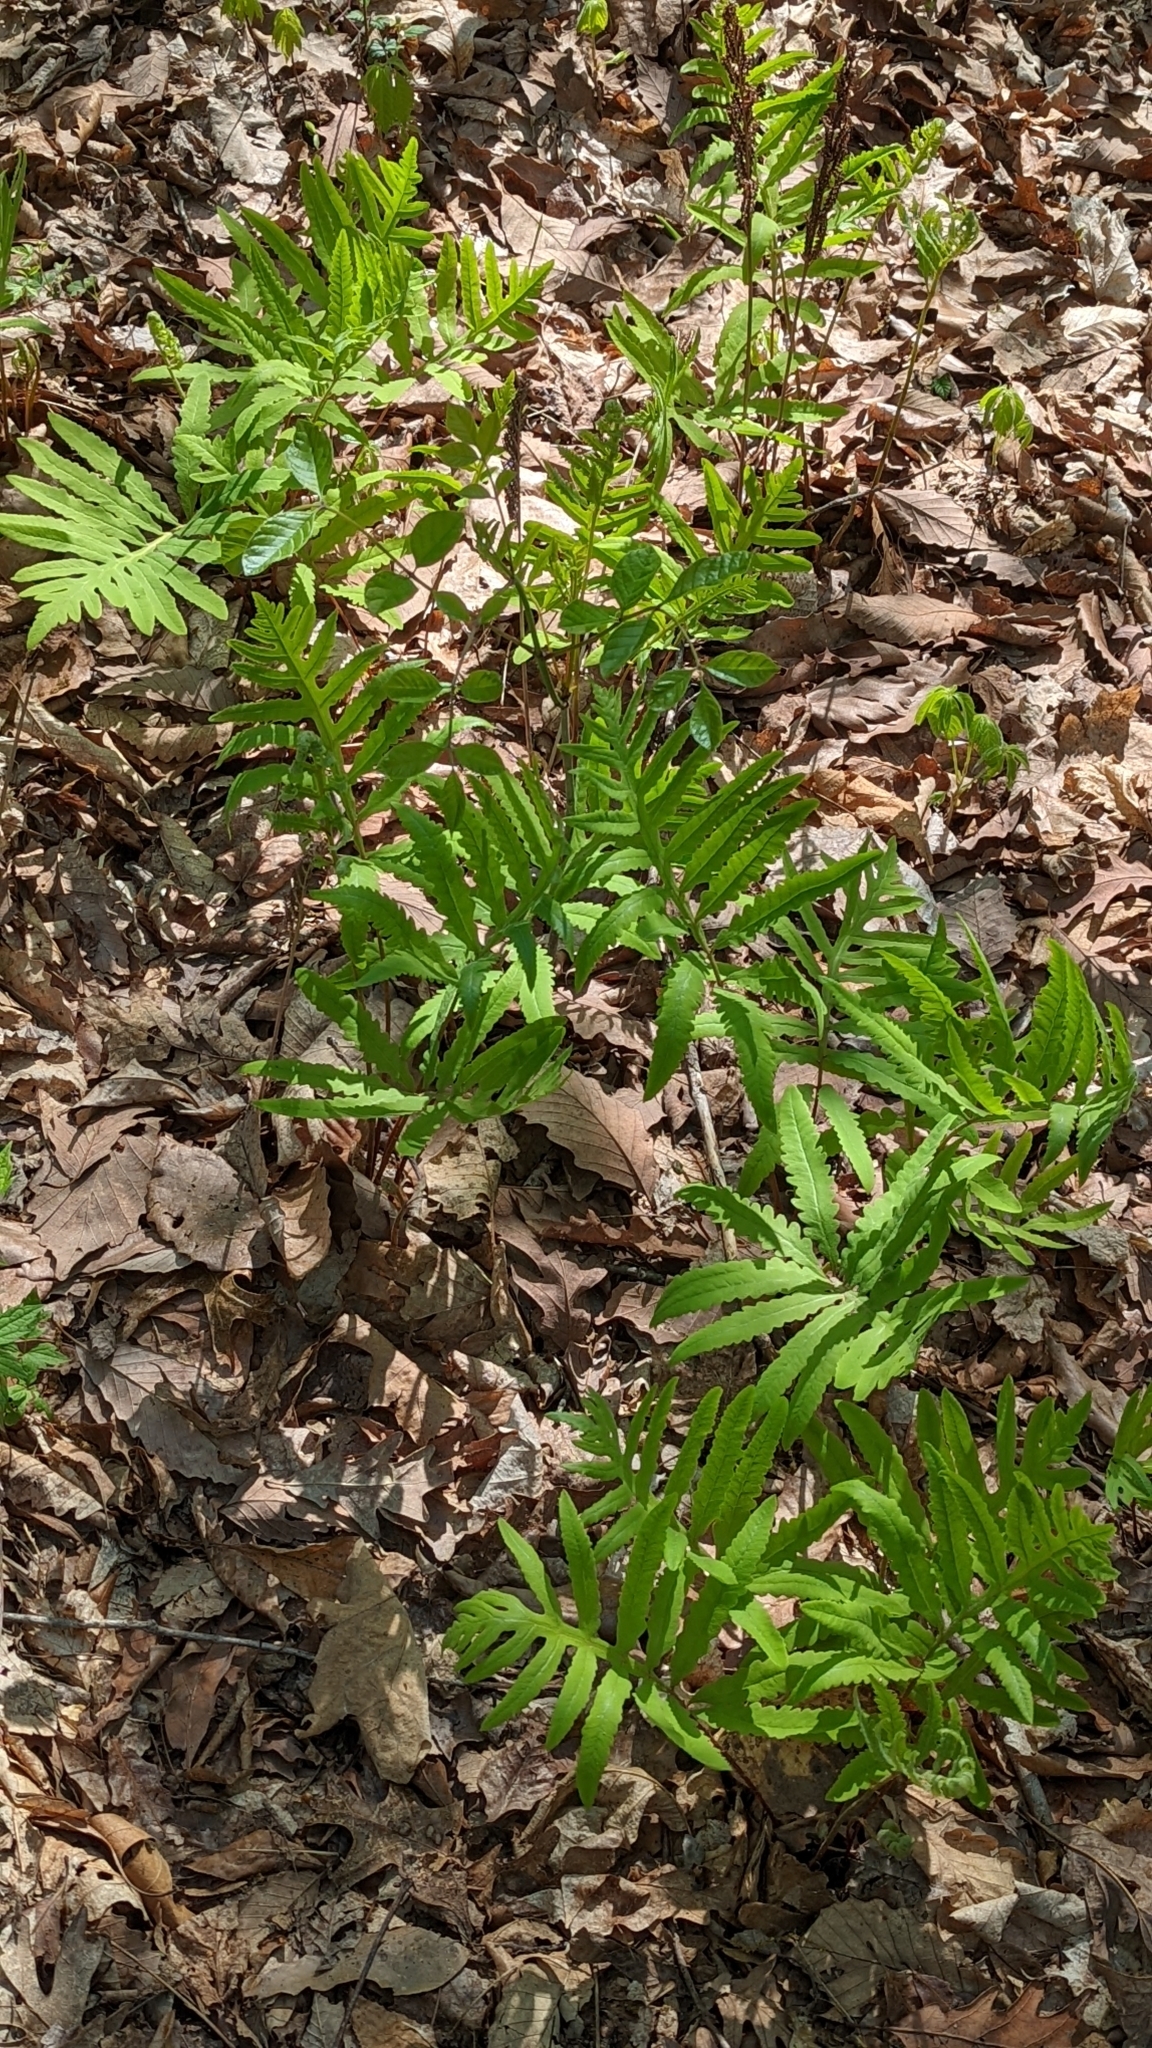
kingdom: Plantae
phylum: Tracheophyta
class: Polypodiopsida
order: Polypodiales
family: Onocleaceae
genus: Onoclea
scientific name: Onoclea sensibilis
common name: Sensitive fern
